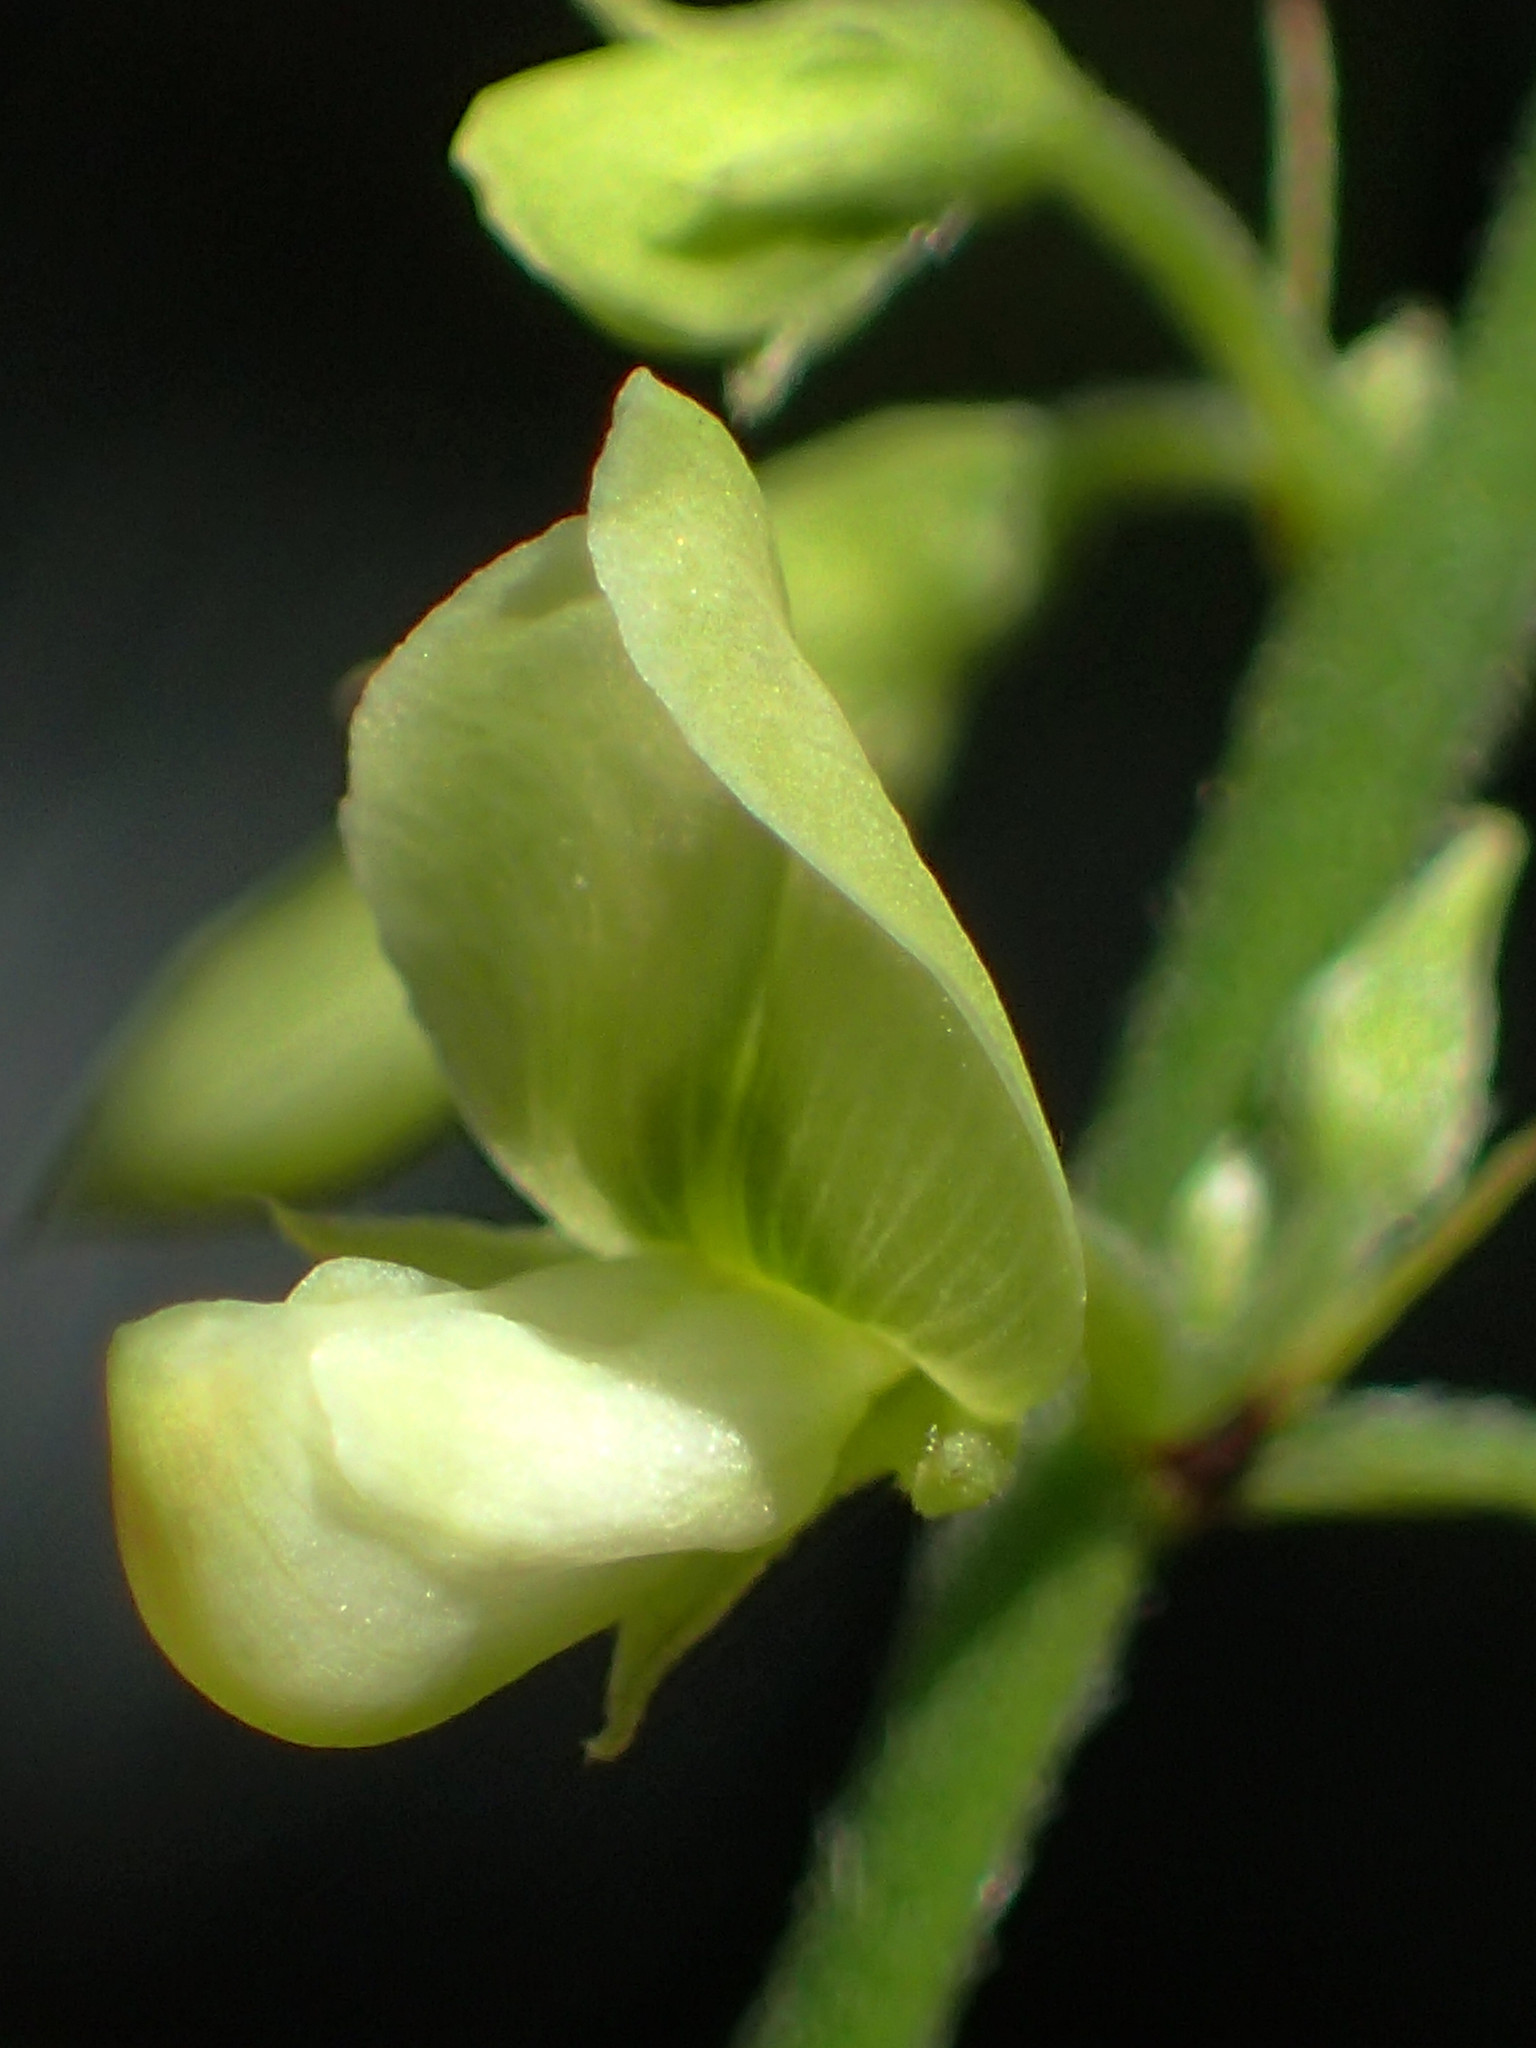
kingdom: Plantae
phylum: Tracheophyta
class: Magnoliopsida
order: Fabales
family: Fabaceae
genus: Ohwia
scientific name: Ohwia caudata
